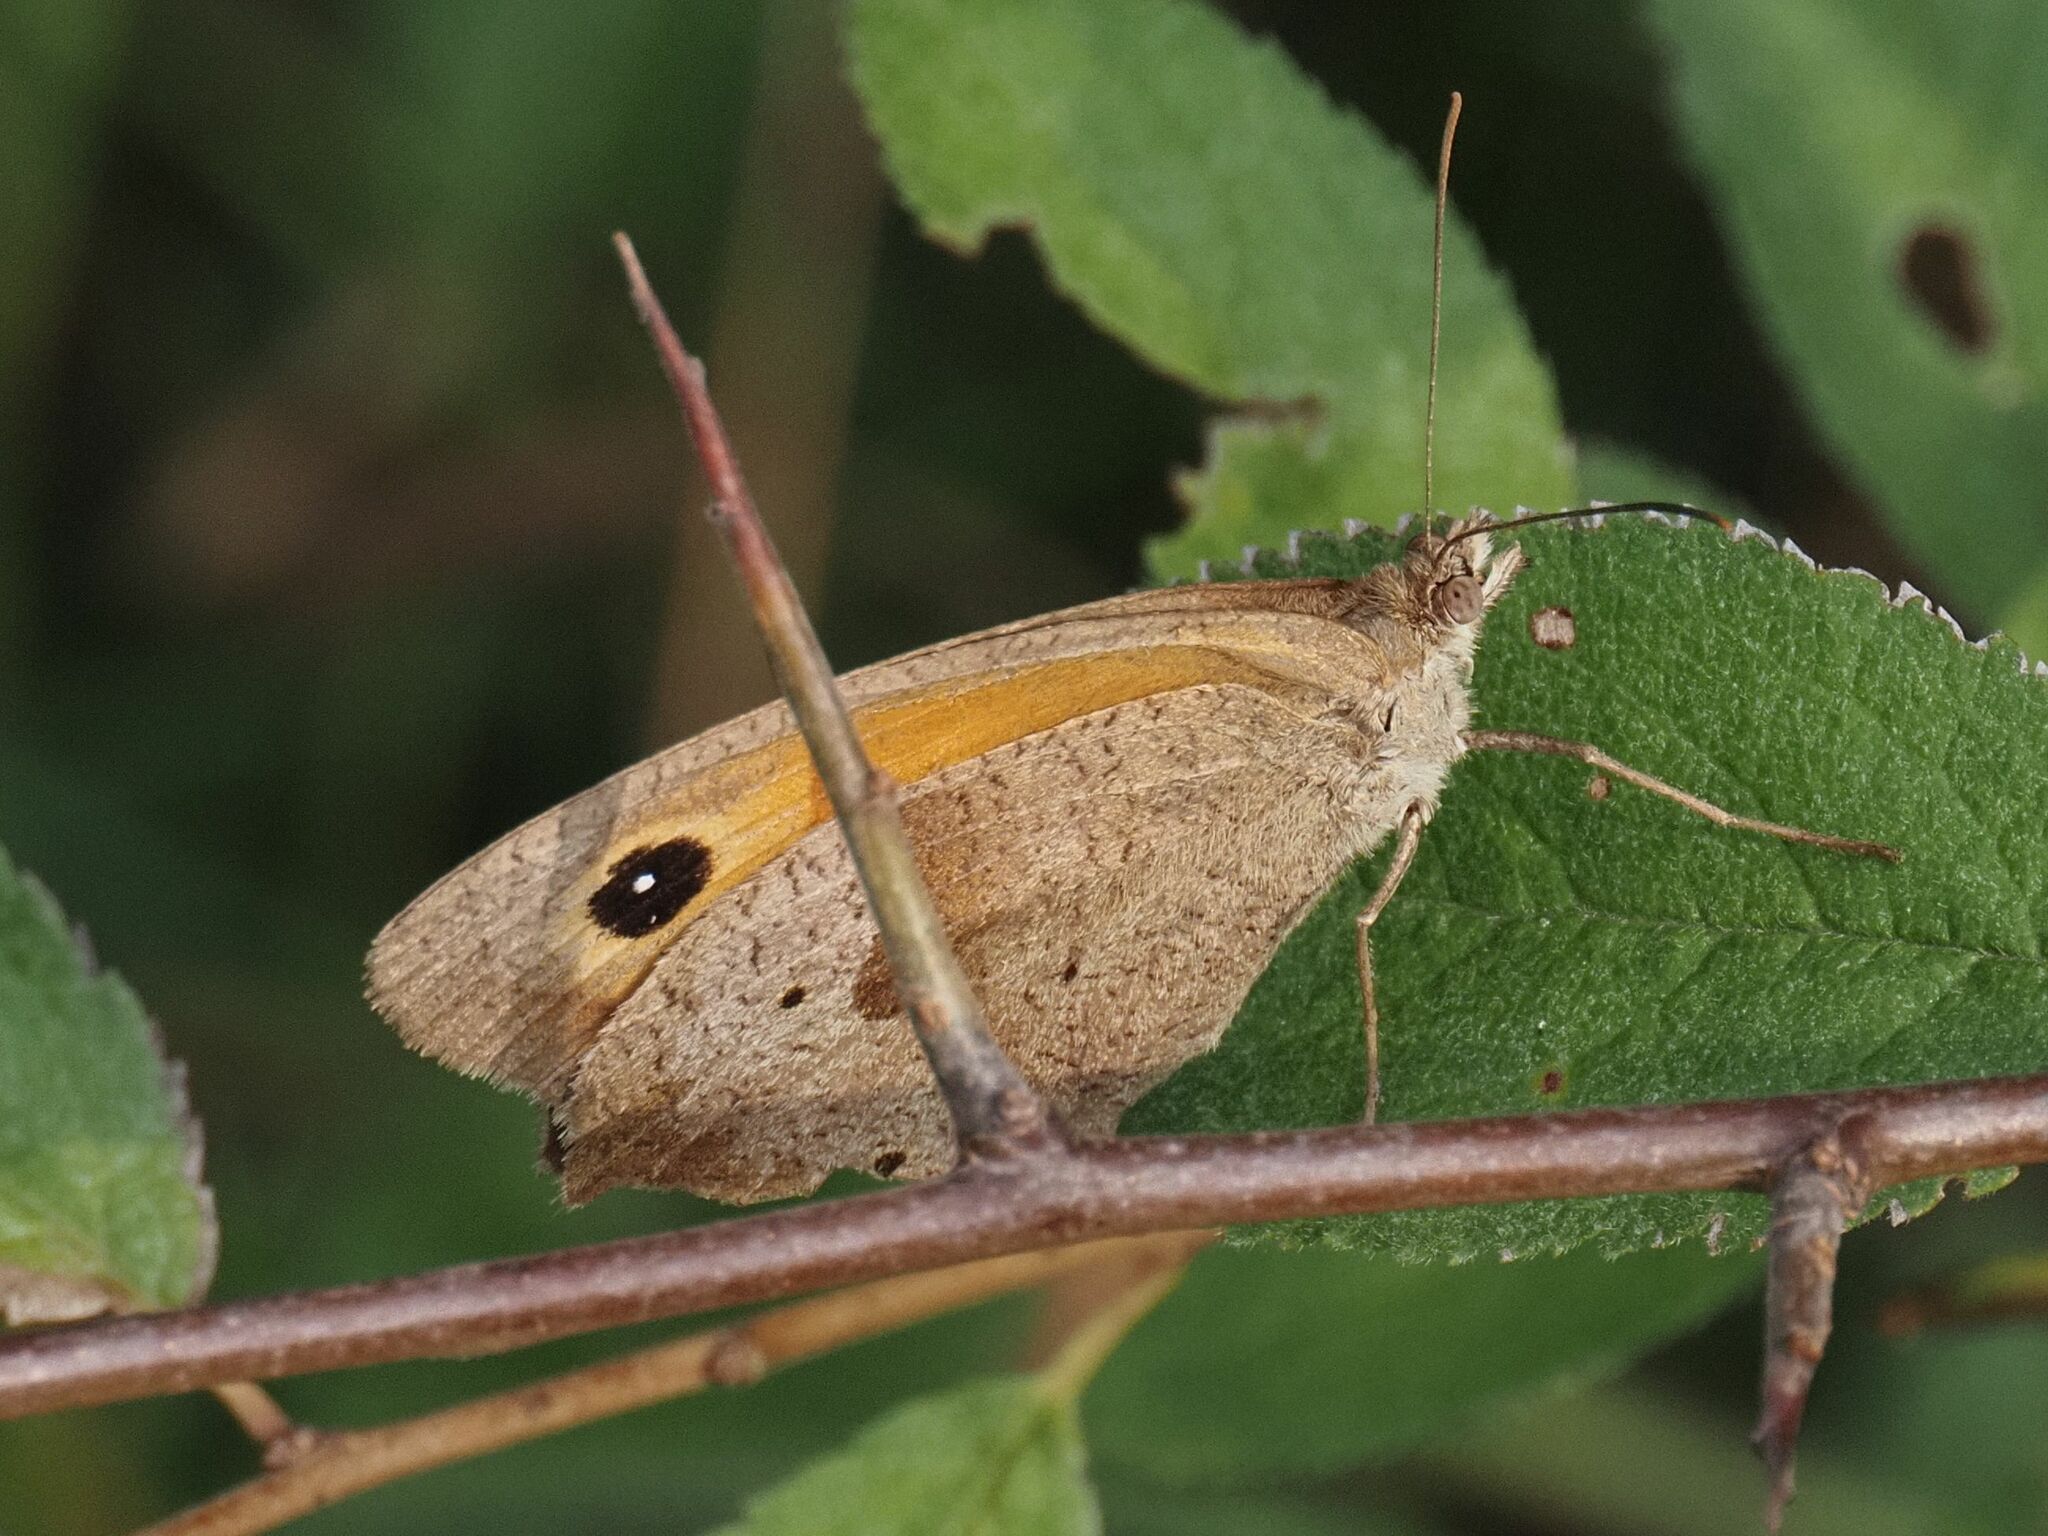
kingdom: Animalia
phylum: Arthropoda
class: Insecta
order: Lepidoptera
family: Nymphalidae
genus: Maniola
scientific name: Maniola jurtina
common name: Meadow brown
